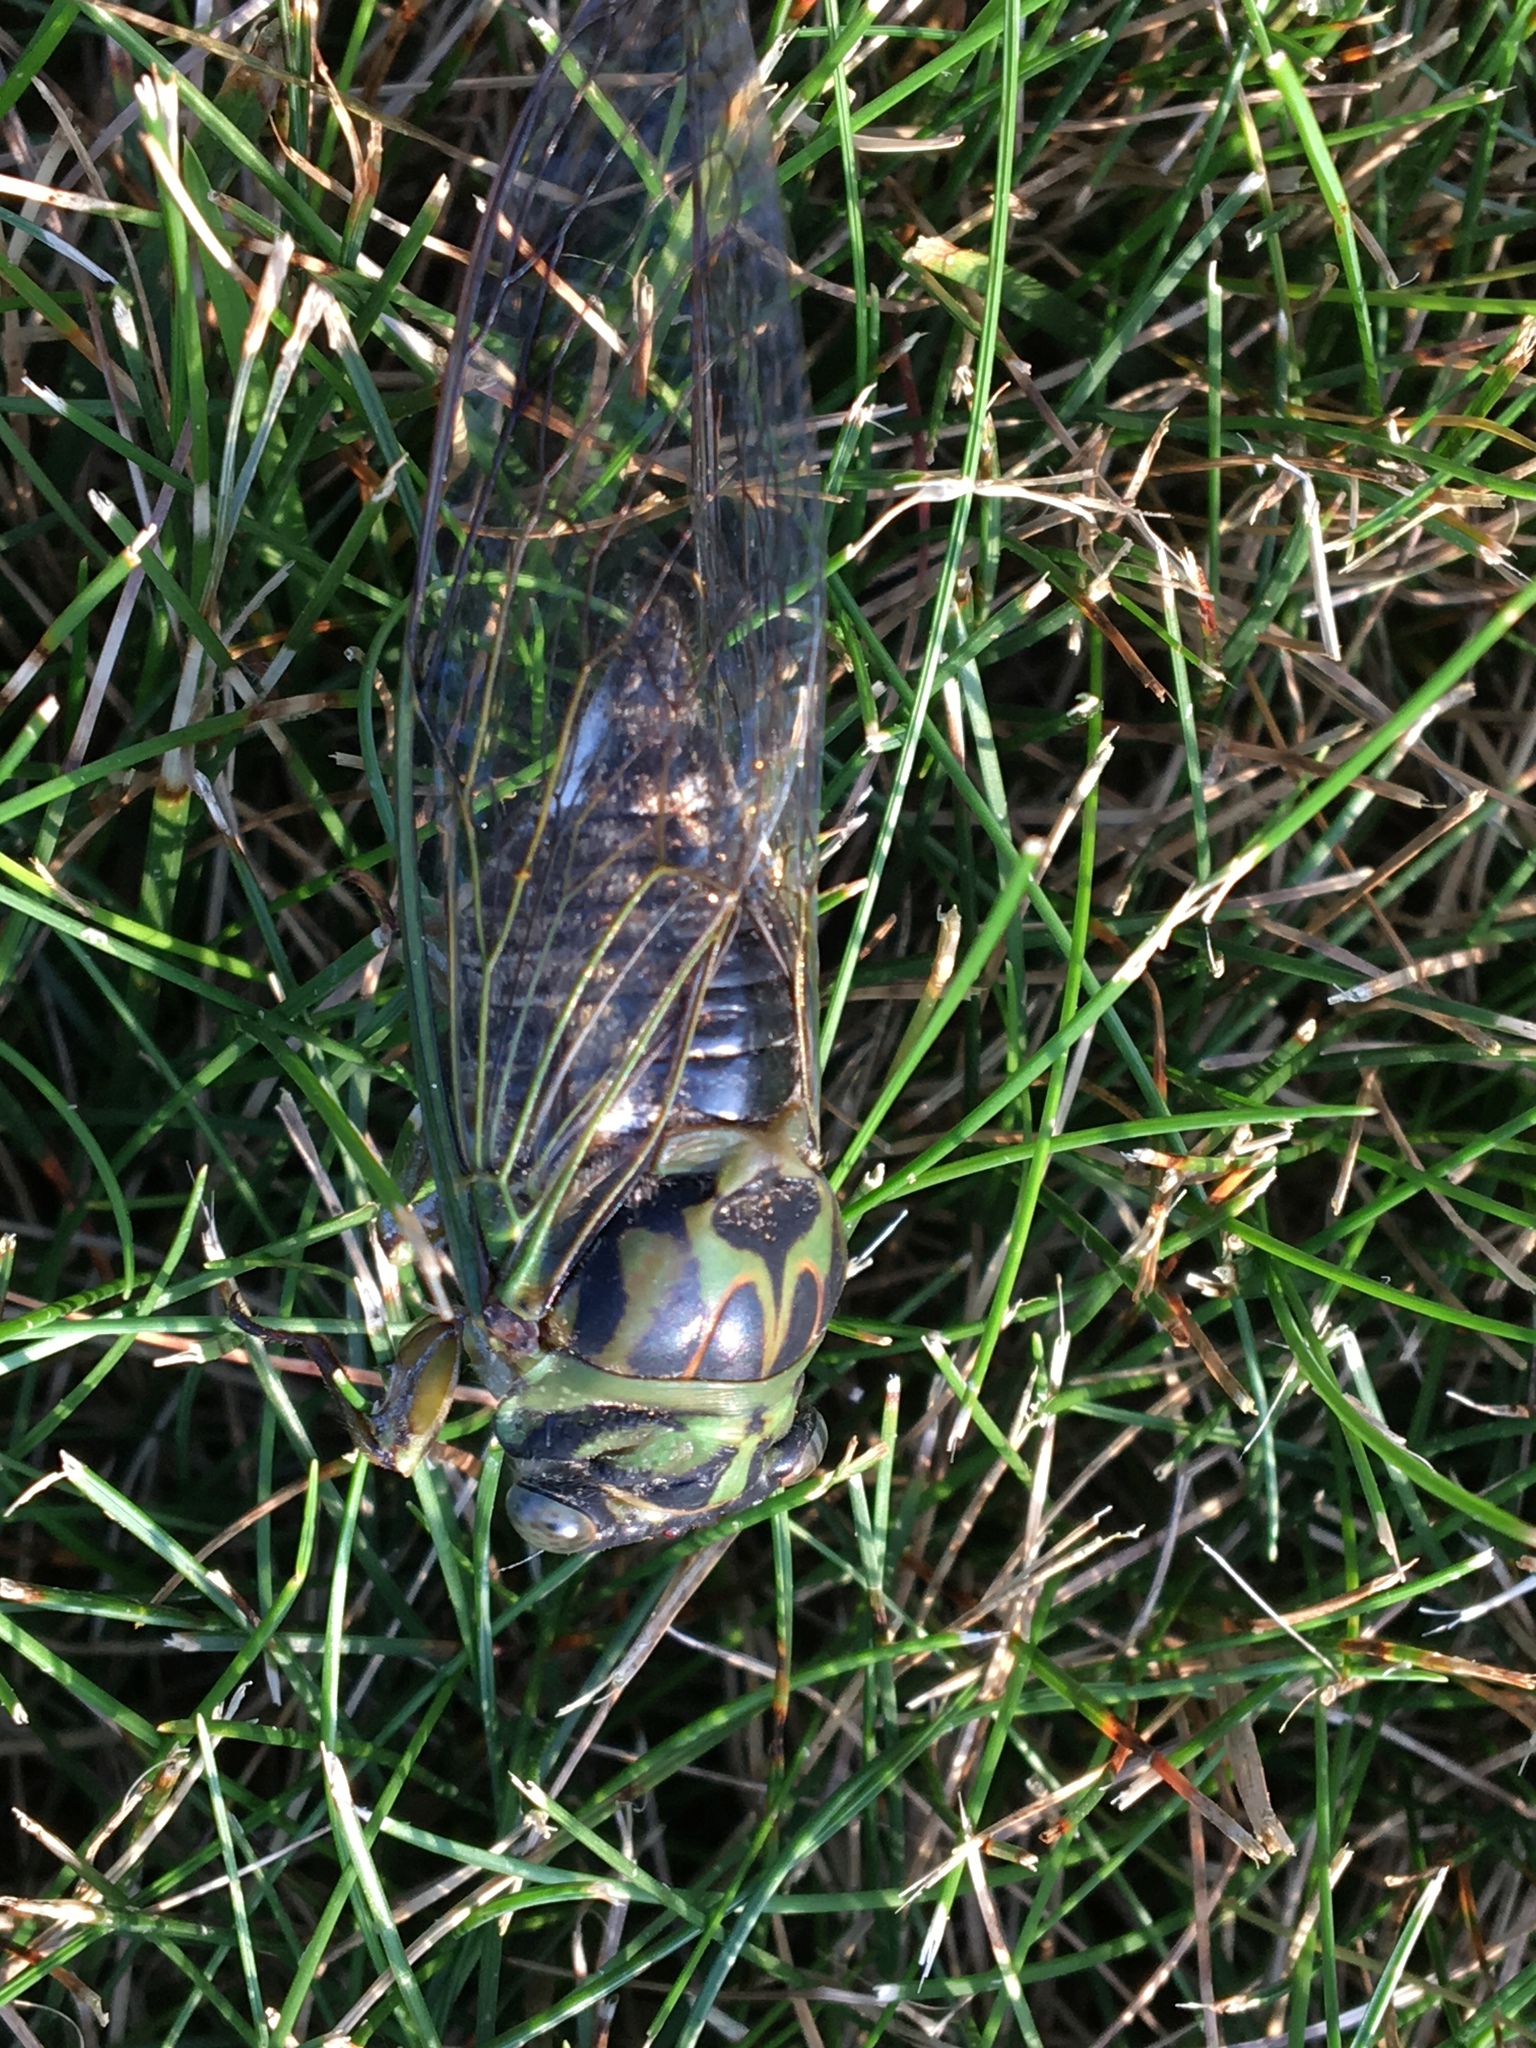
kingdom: Animalia
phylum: Arthropoda
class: Insecta
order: Hemiptera
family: Cicadidae
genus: Neotibicen
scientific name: Neotibicen canicularis
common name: God-day cicada
